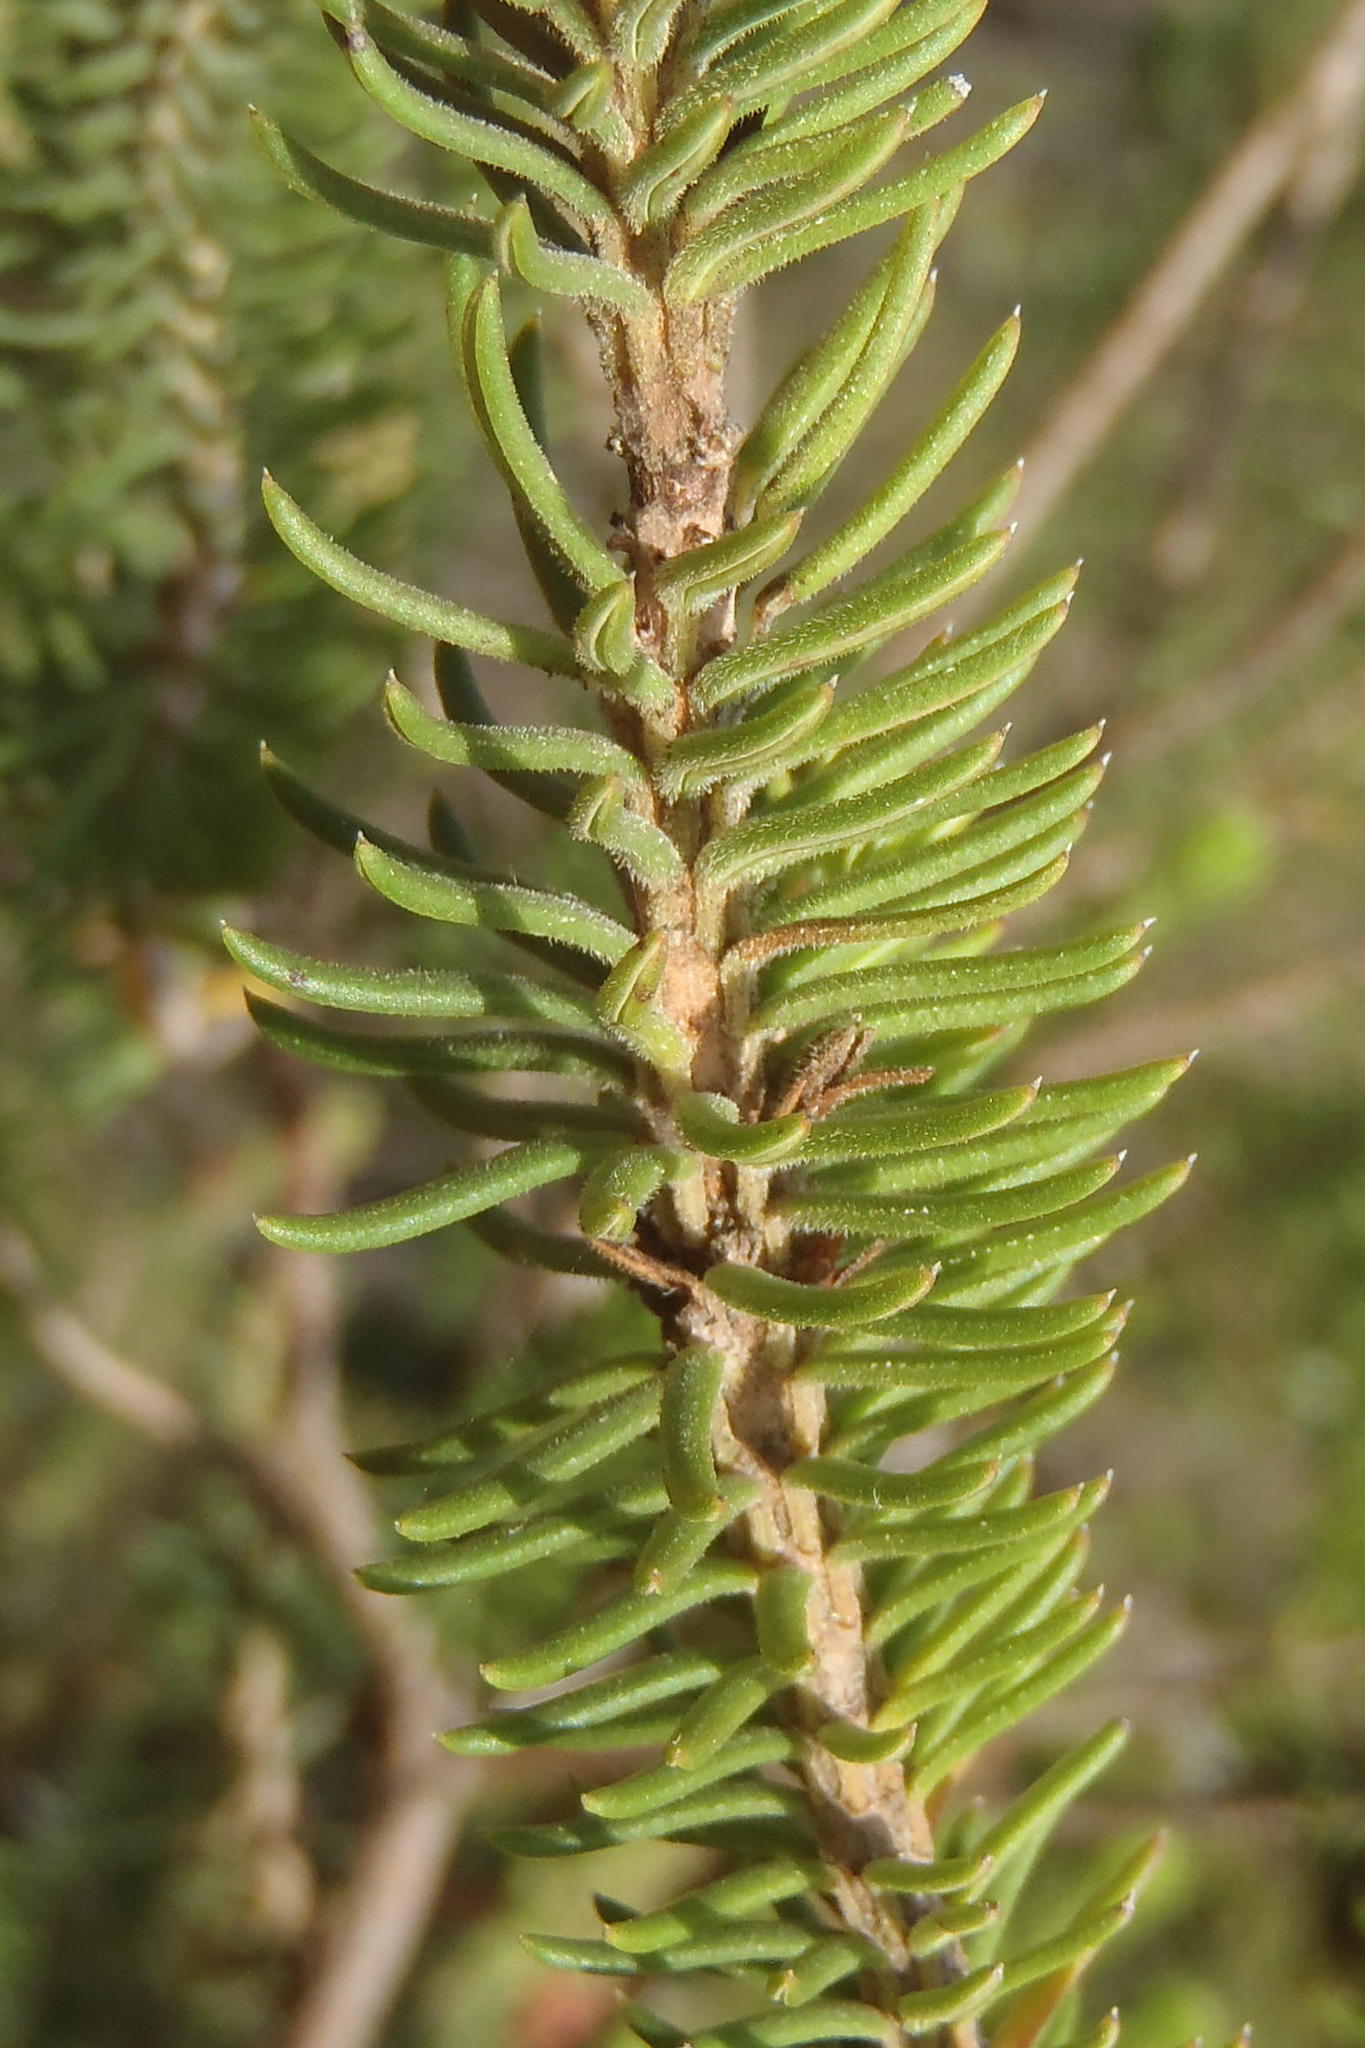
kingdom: Plantae
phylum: Tracheophyta
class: Magnoliopsida
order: Ericales
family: Ericaceae
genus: Erica
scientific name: Erica abietina
